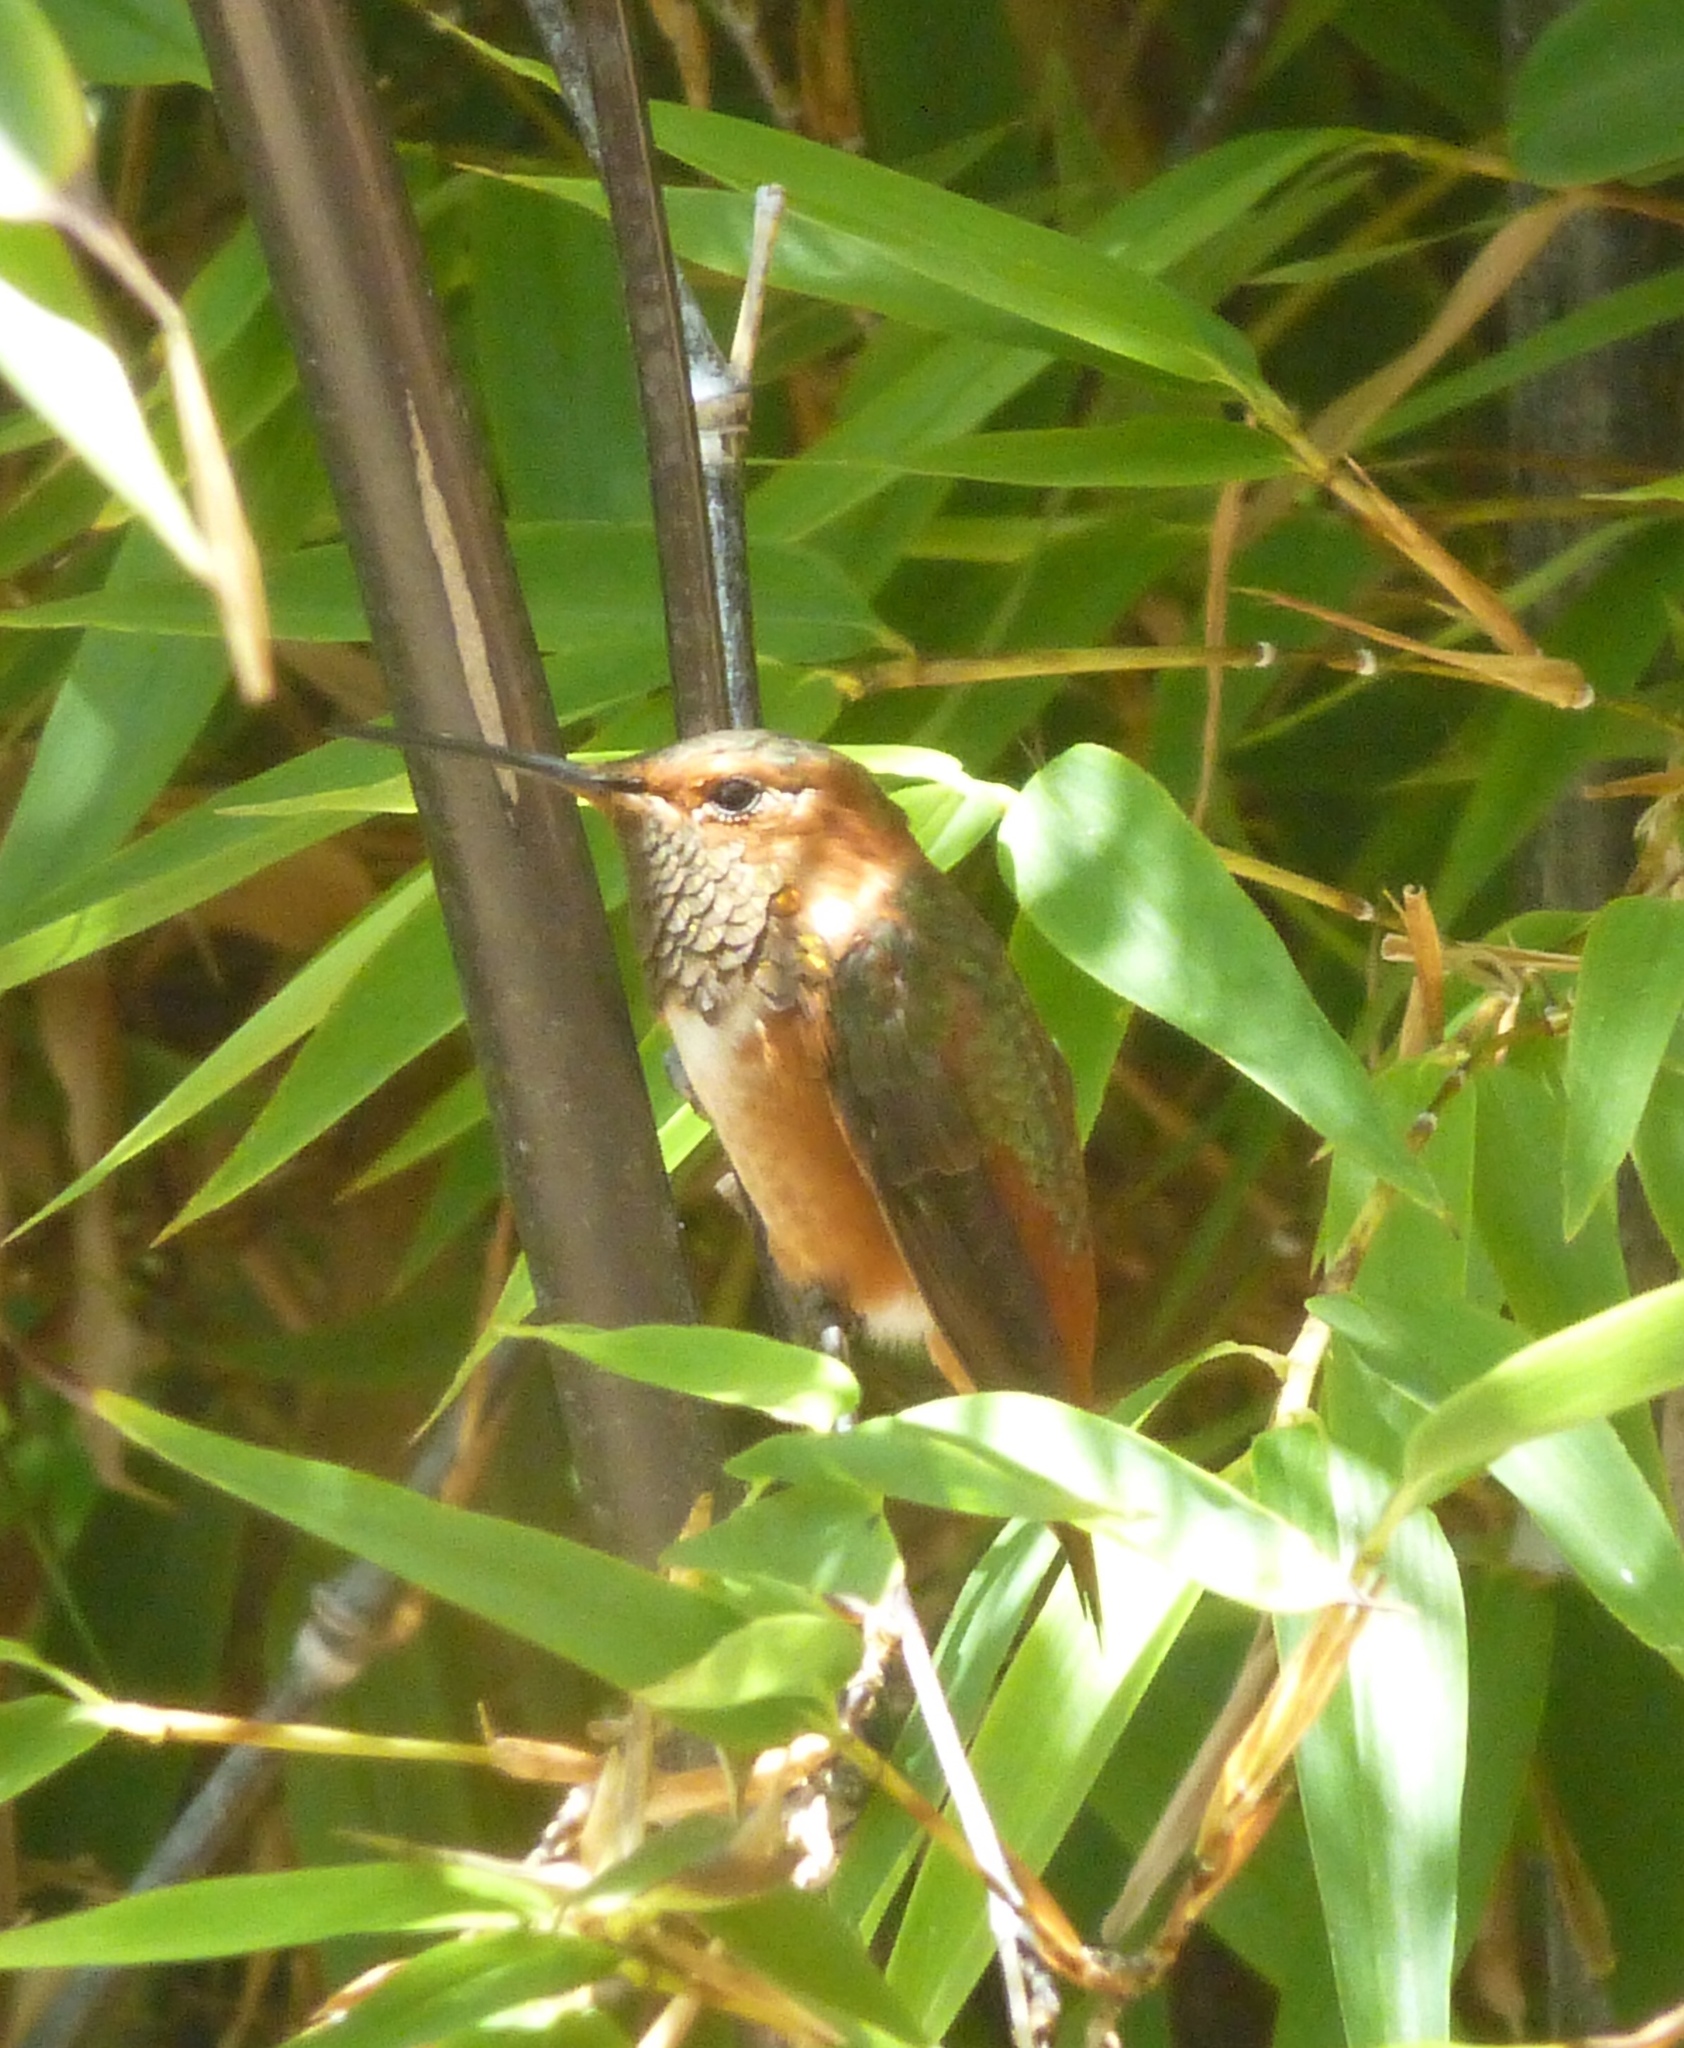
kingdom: Animalia
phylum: Chordata
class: Aves
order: Apodiformes
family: Trochilidae
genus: Selasphorus
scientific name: Selasphorus sasin
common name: Allen's hummingbird
